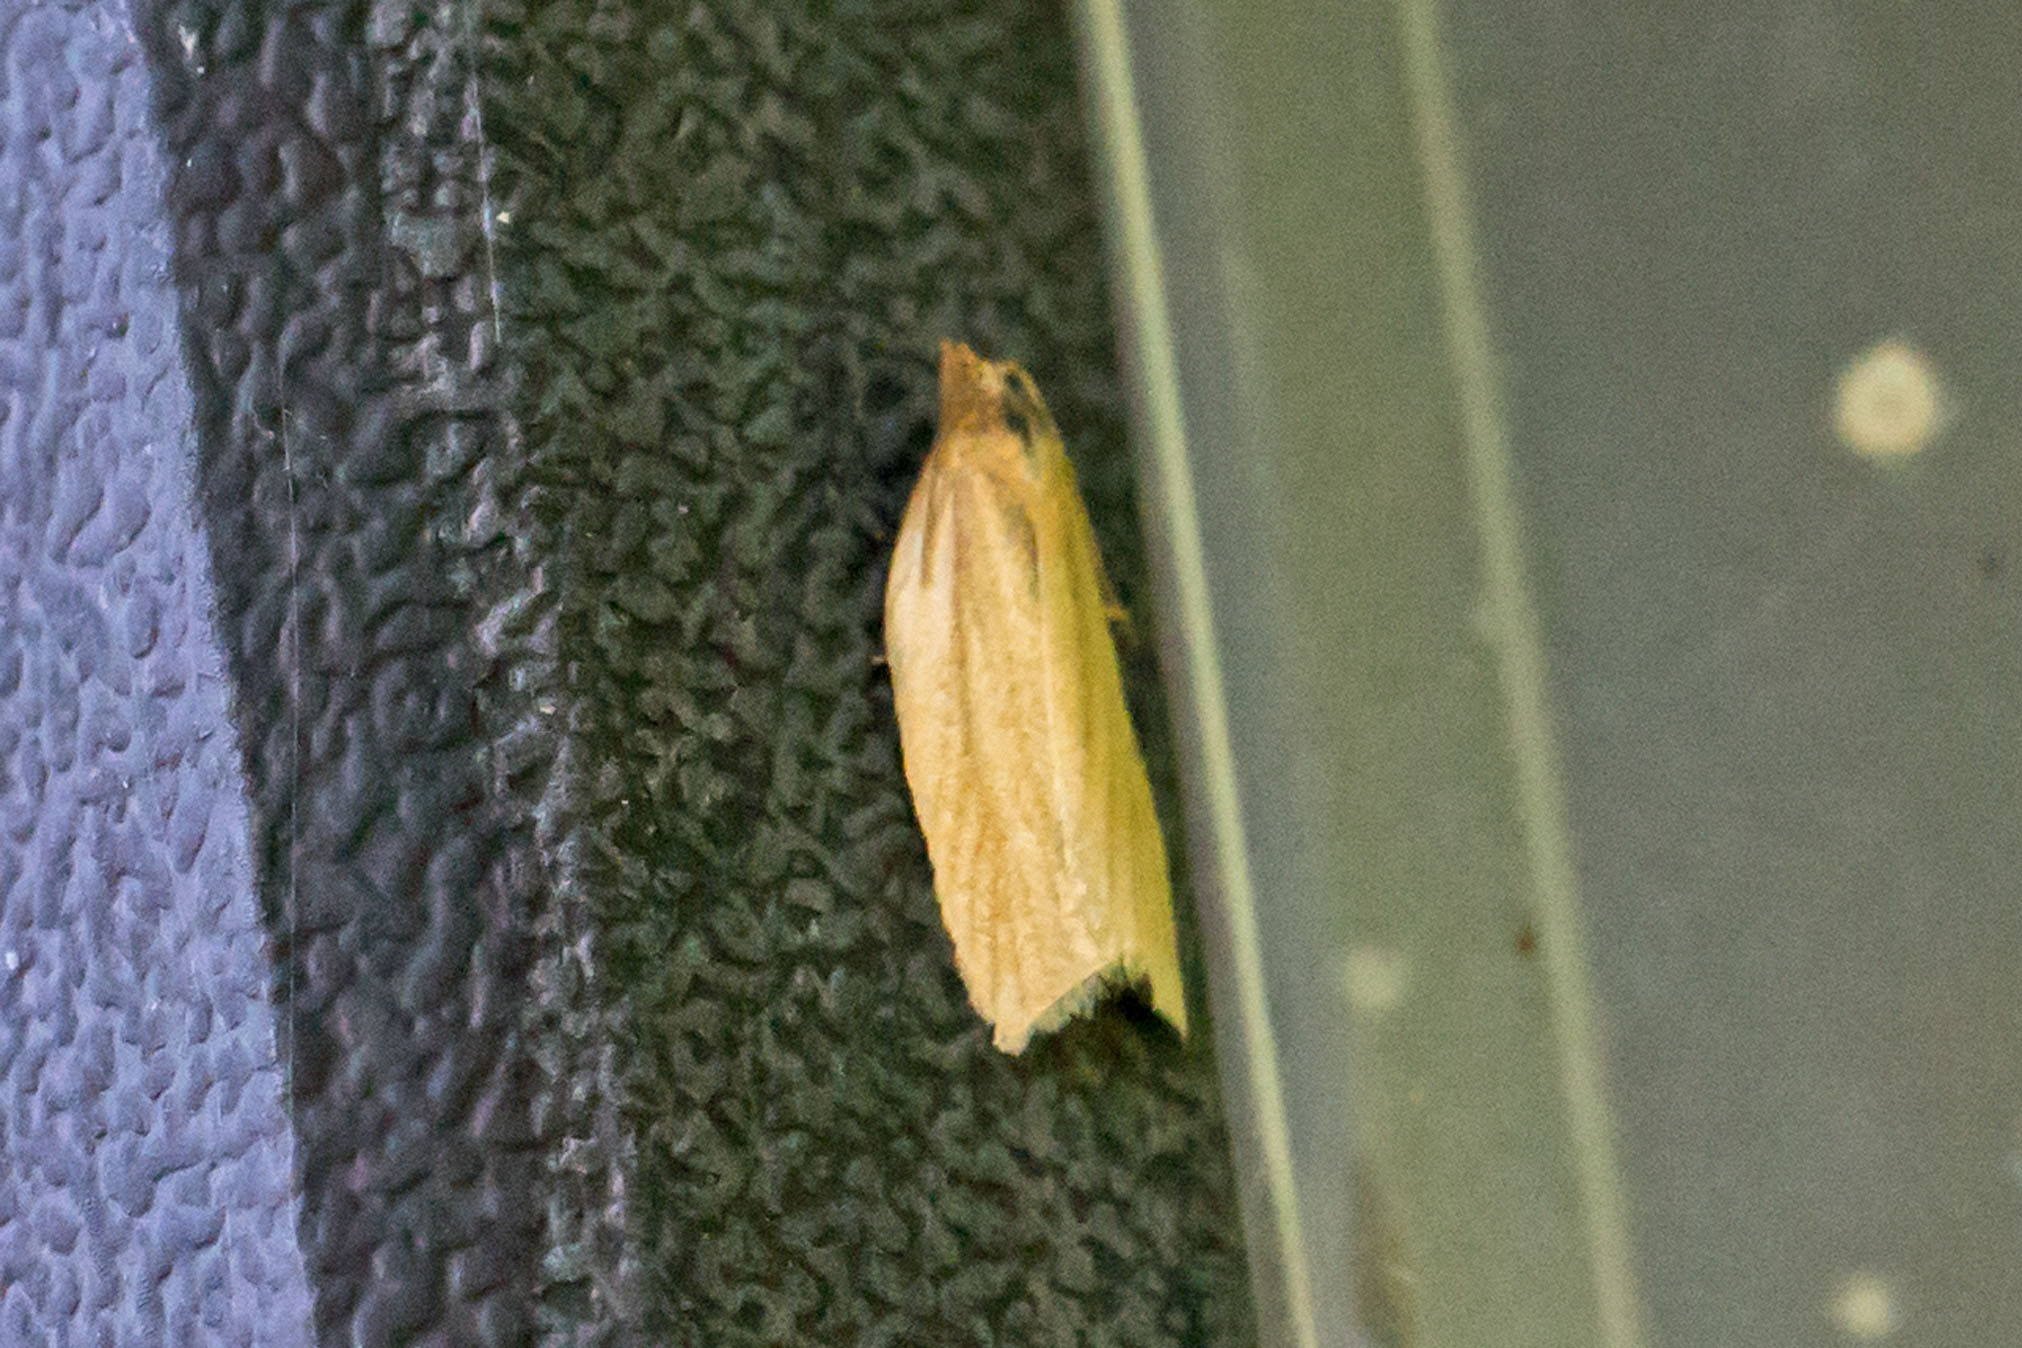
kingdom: Animalia
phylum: Arthropoda
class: Insecta
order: Lepidoptera
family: Tortricidae
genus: Clepsis
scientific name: Clepsis clemensiana
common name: Clemens' clepsis moth
